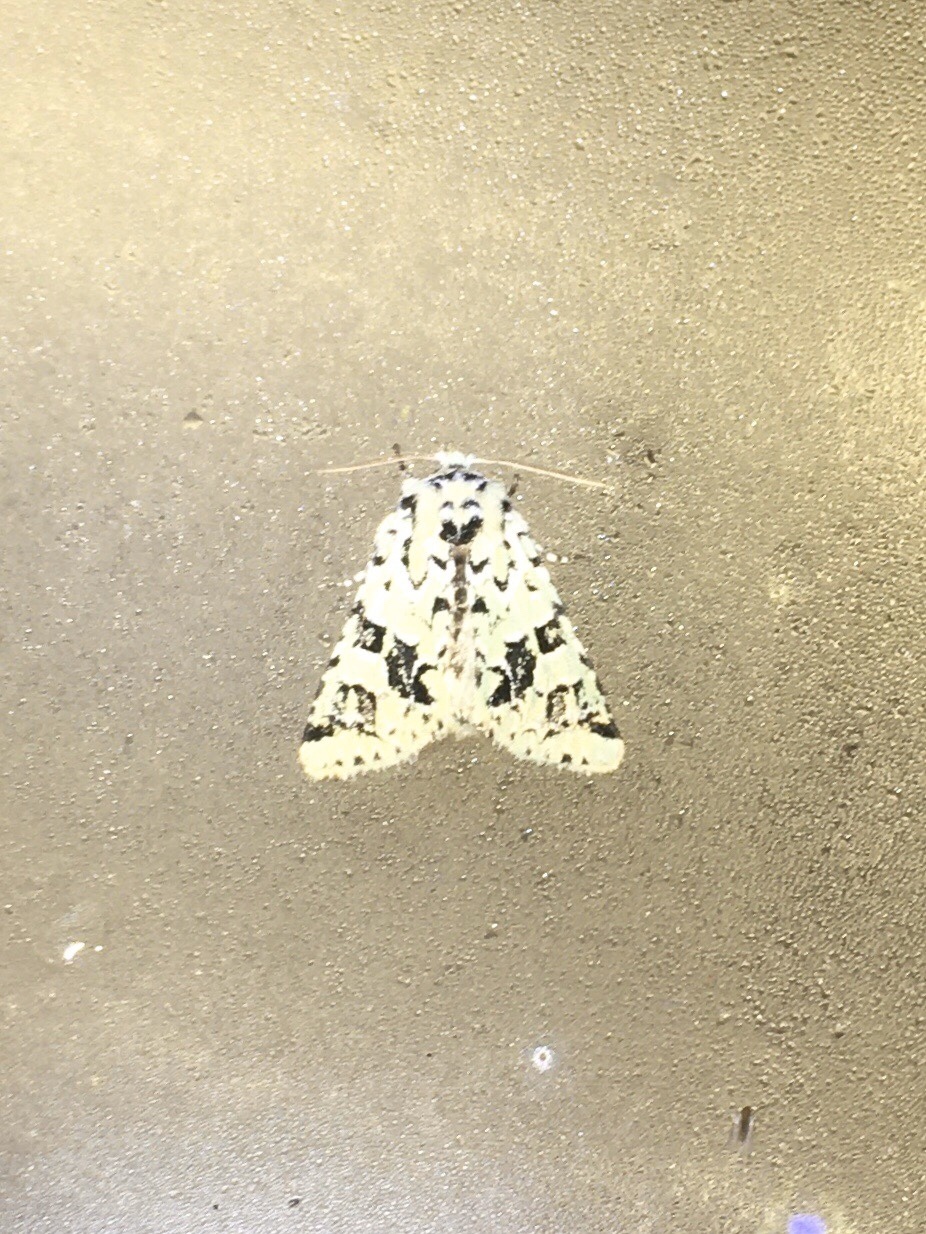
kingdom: Animalia
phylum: Arthropoda
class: Insecta
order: Lepidoptera
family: Noctuidae
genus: Feralia
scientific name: Feralia comstocki
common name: Comstock's sallow
